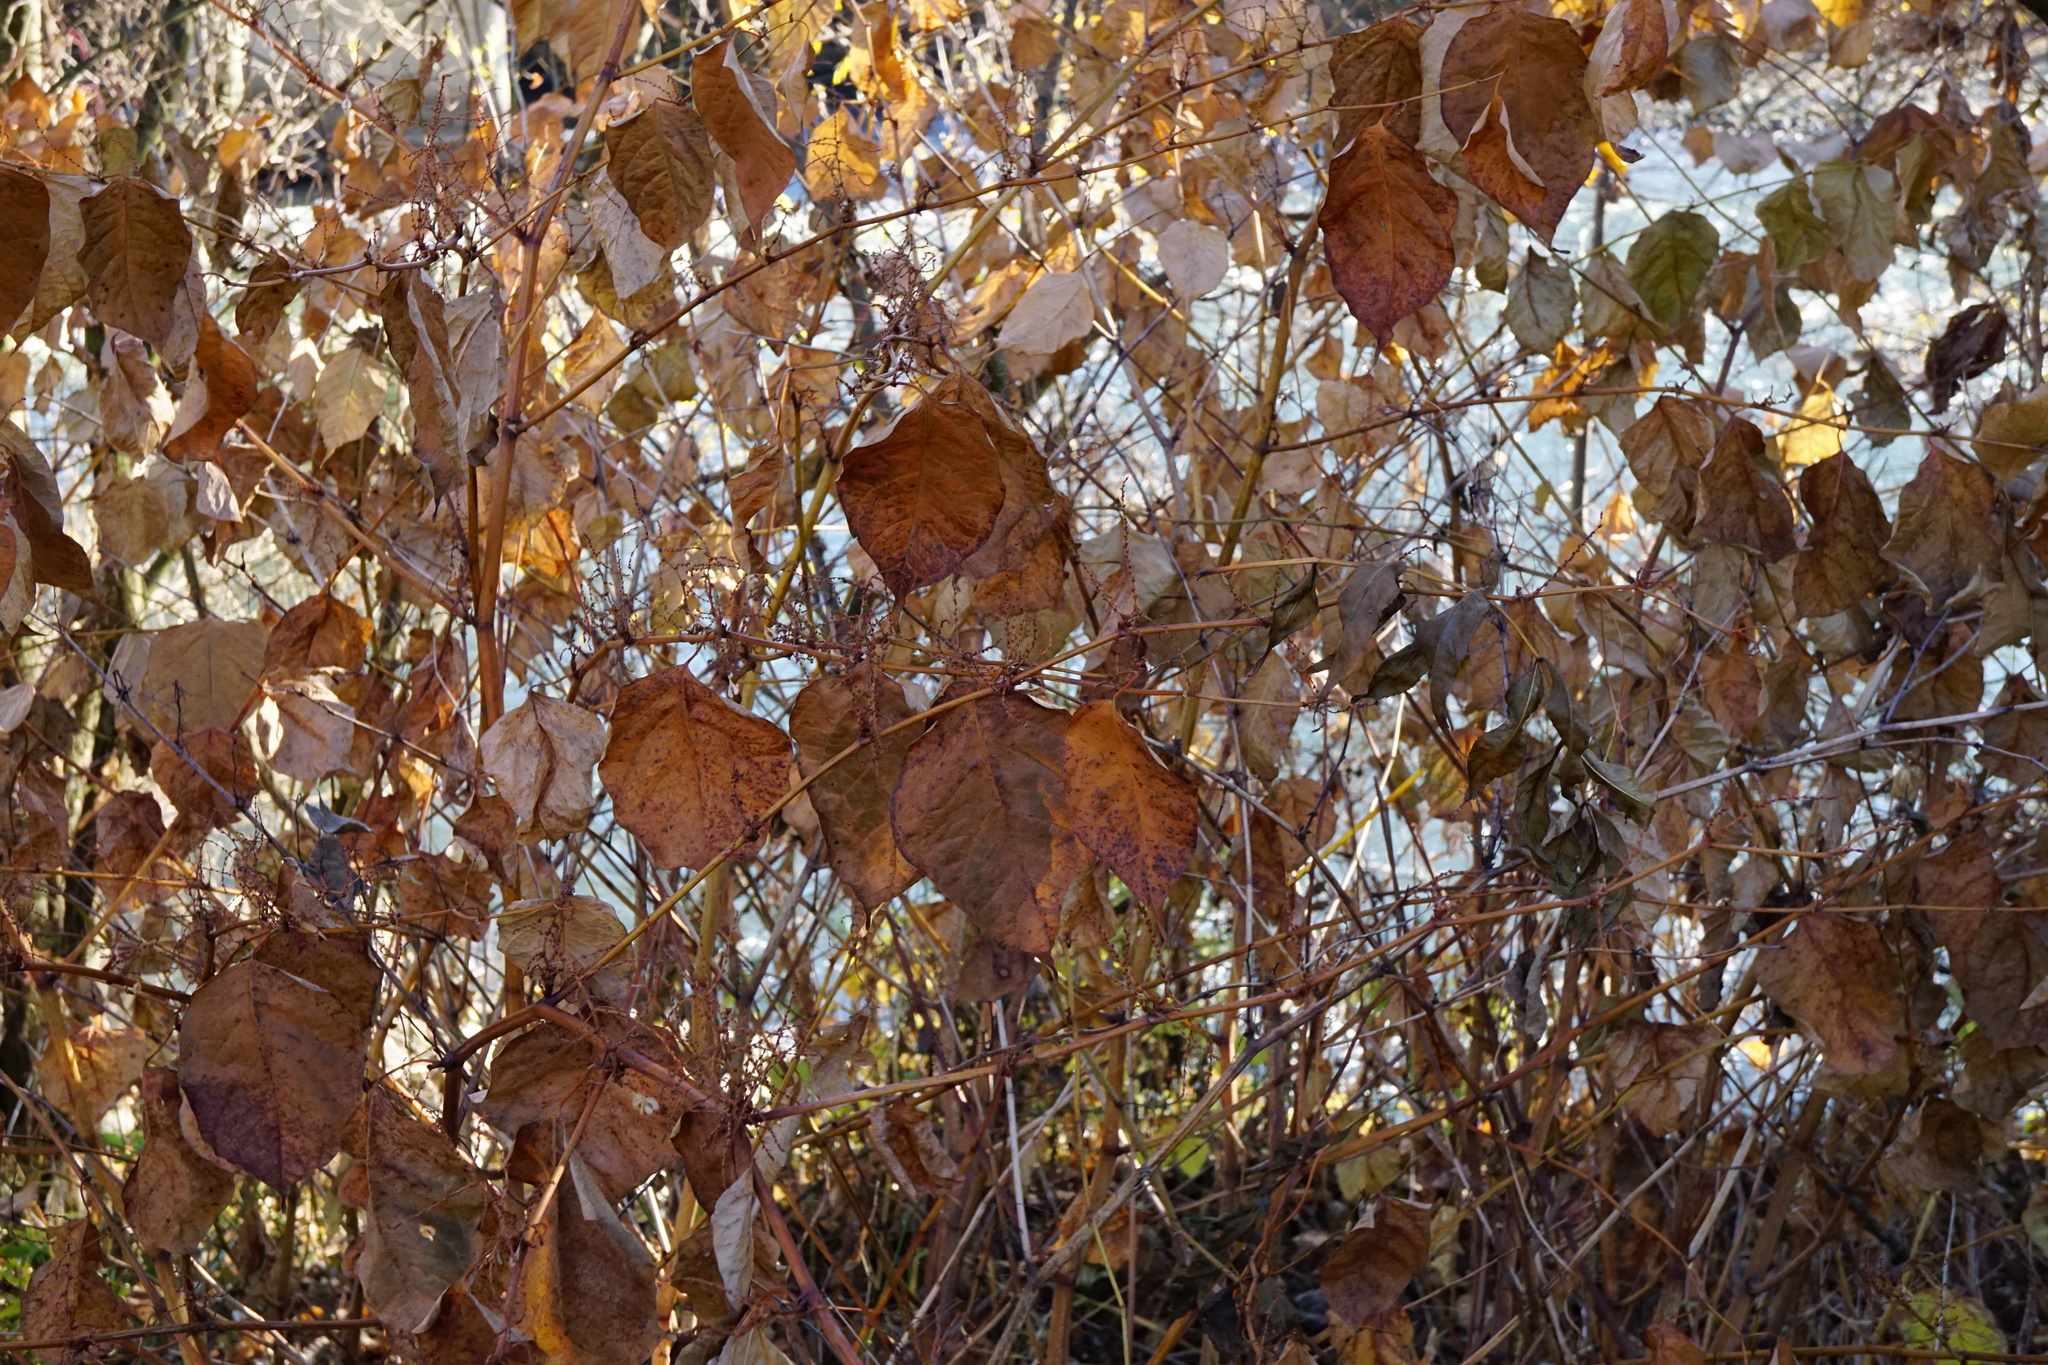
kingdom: Plantae
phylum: Tracheophyta
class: Magnoliopsida
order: Caryophyllales
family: Polygonaceae
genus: Reynoutria
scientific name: Reynoutria japonica
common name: Japanese knotweed
